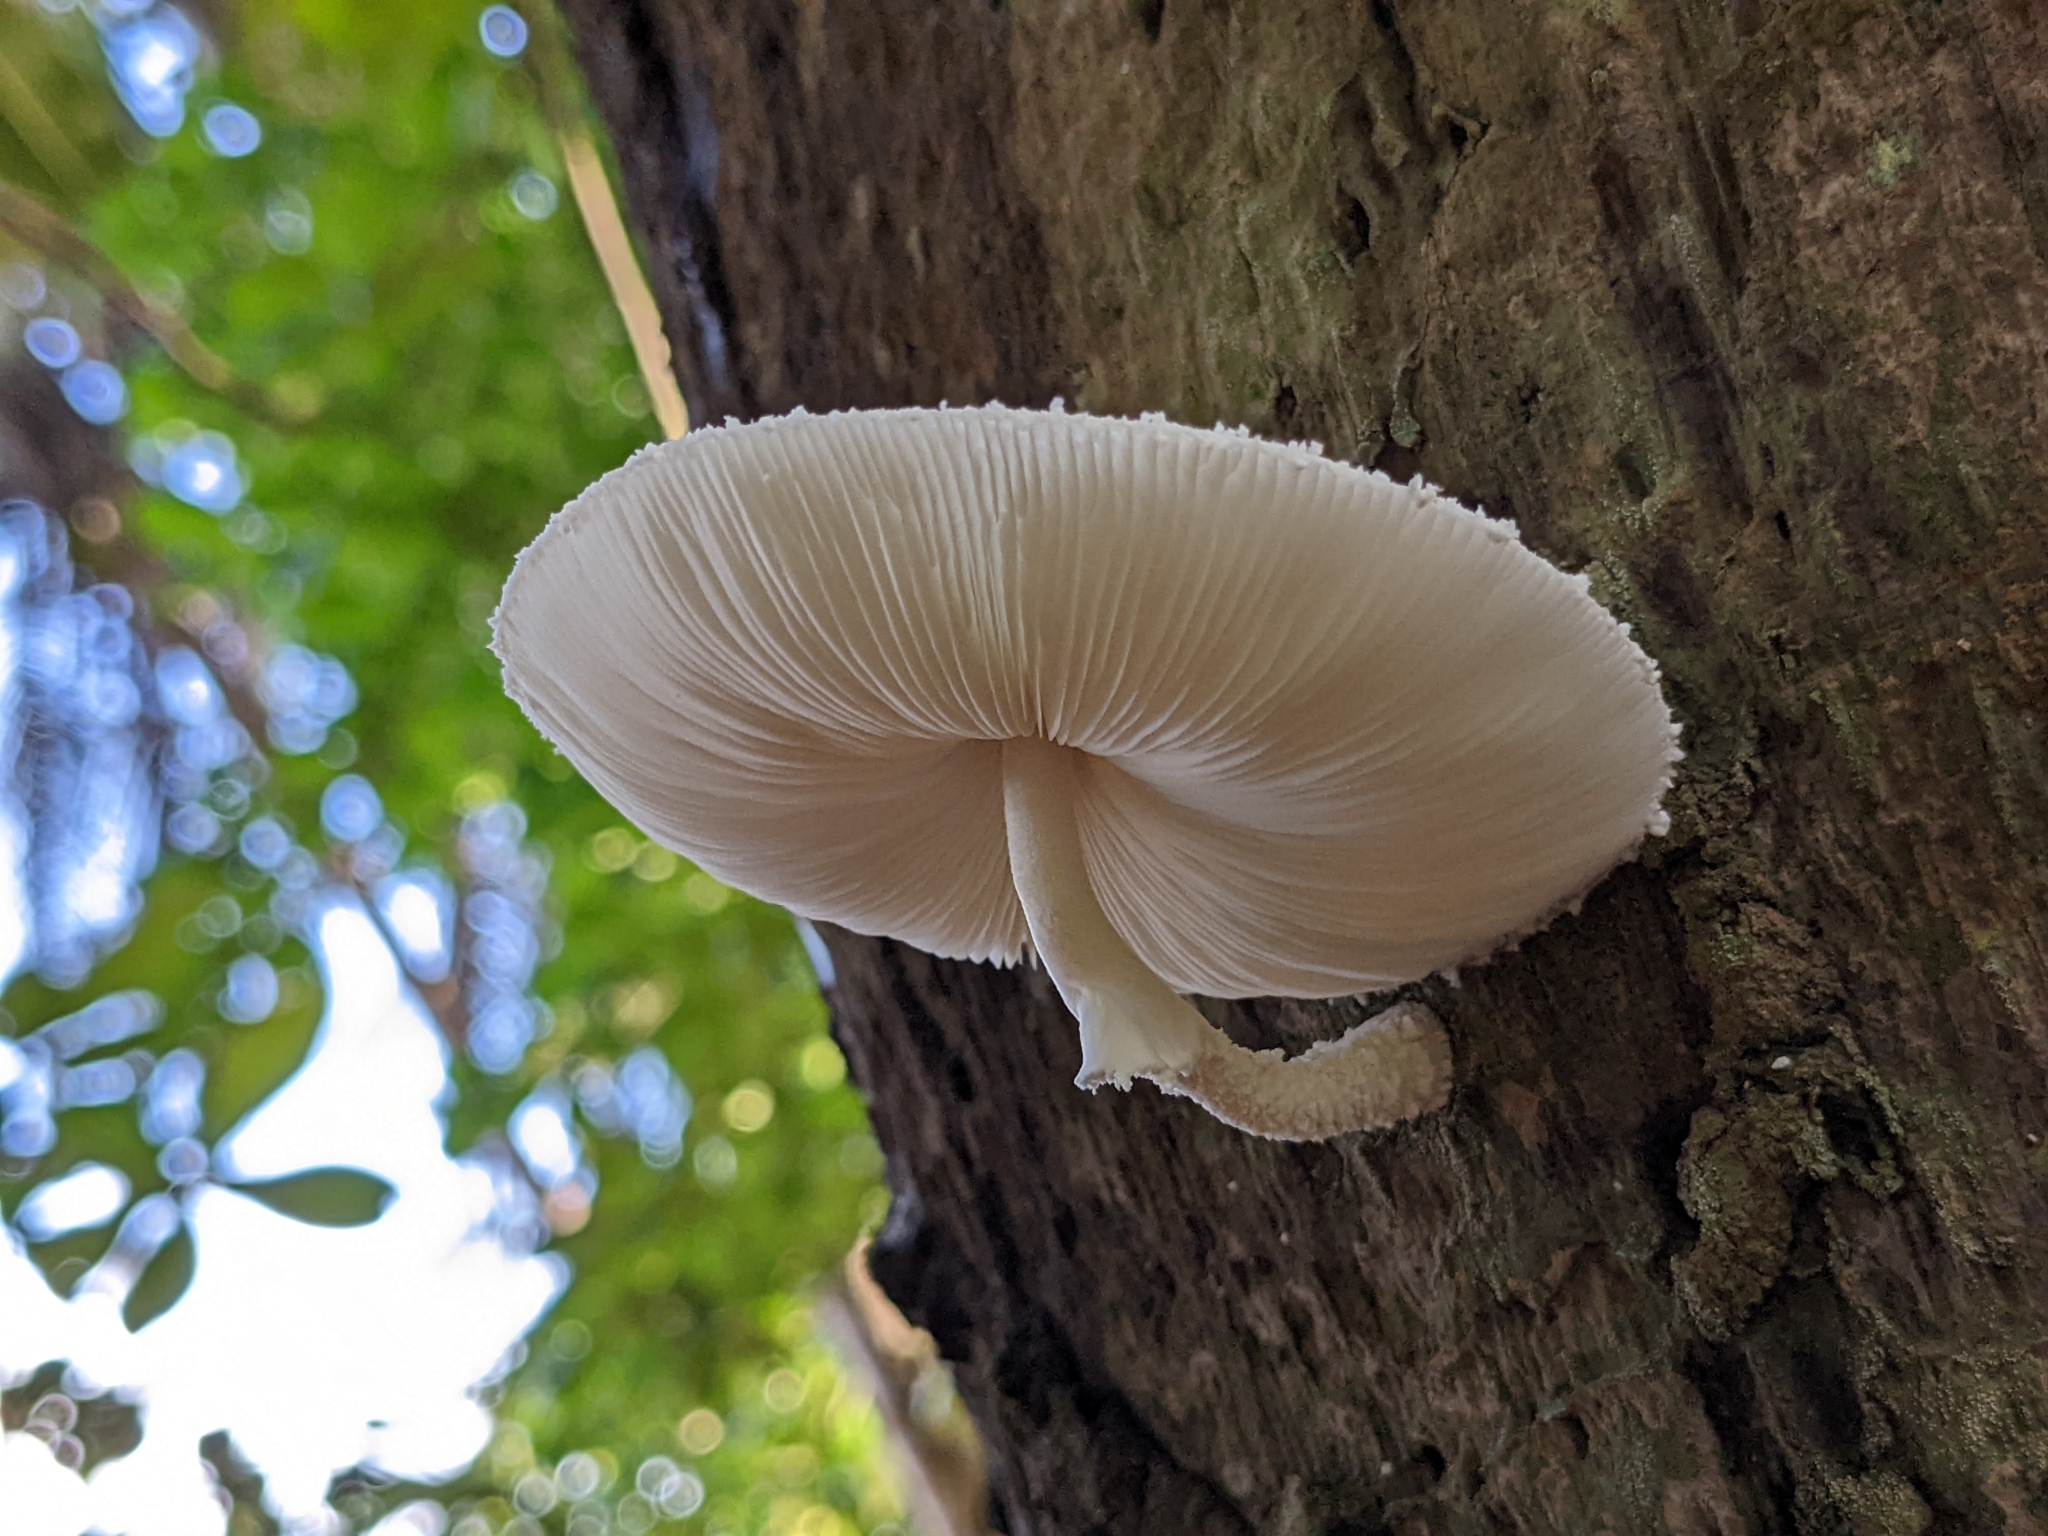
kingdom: Fungi
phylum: Basidiomycota
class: Agaricomycetes
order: Agaricales
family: Agaricaceae
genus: Leucocoprinus
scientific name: Leucocoprinus cretaceus
